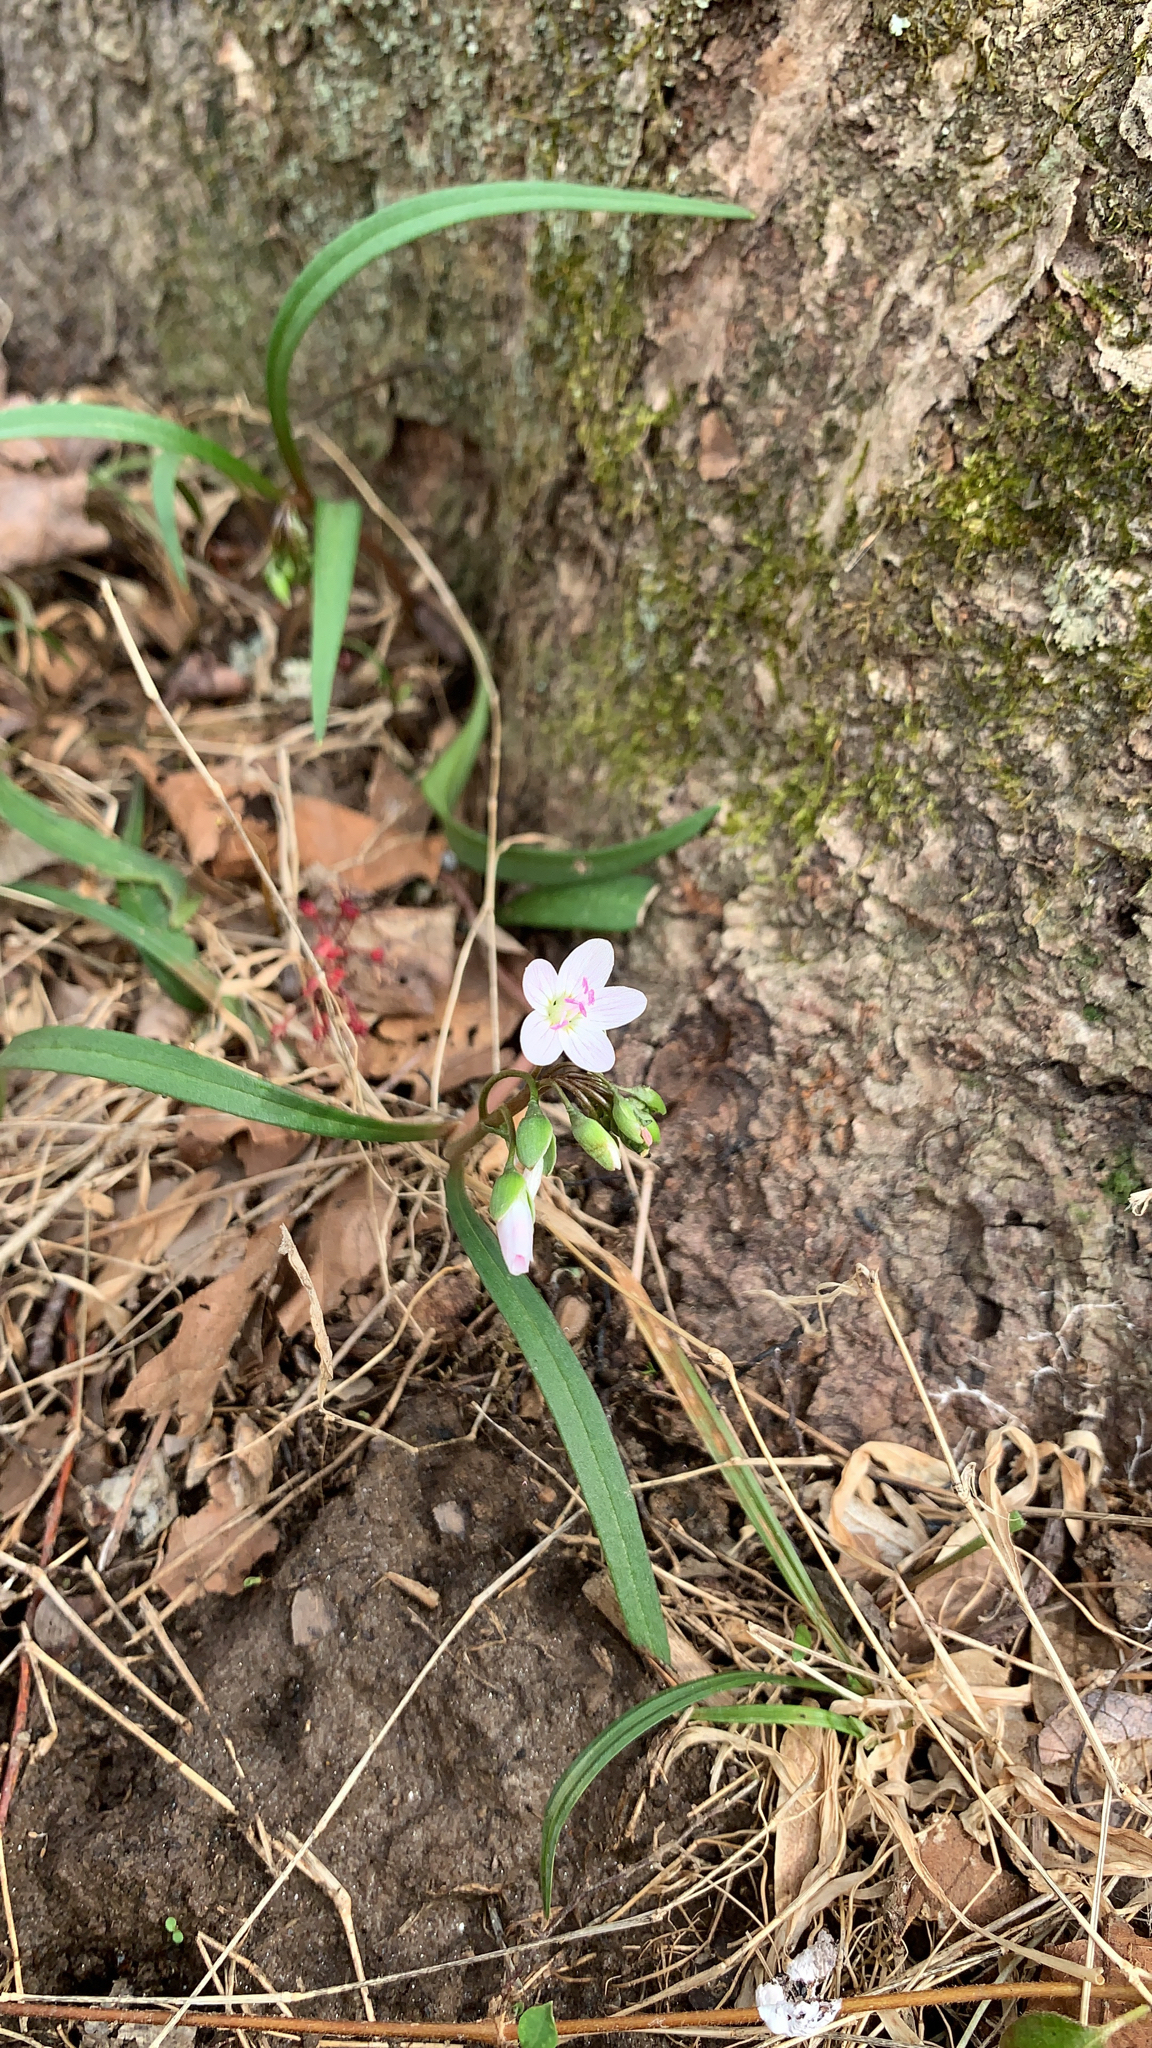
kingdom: Plantae
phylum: Tracheophyta
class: Magnoliopsida
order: Caryophyllales
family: Montiaceae
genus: Claytonia
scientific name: Claytonia virginica
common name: Virginia springbeauty
